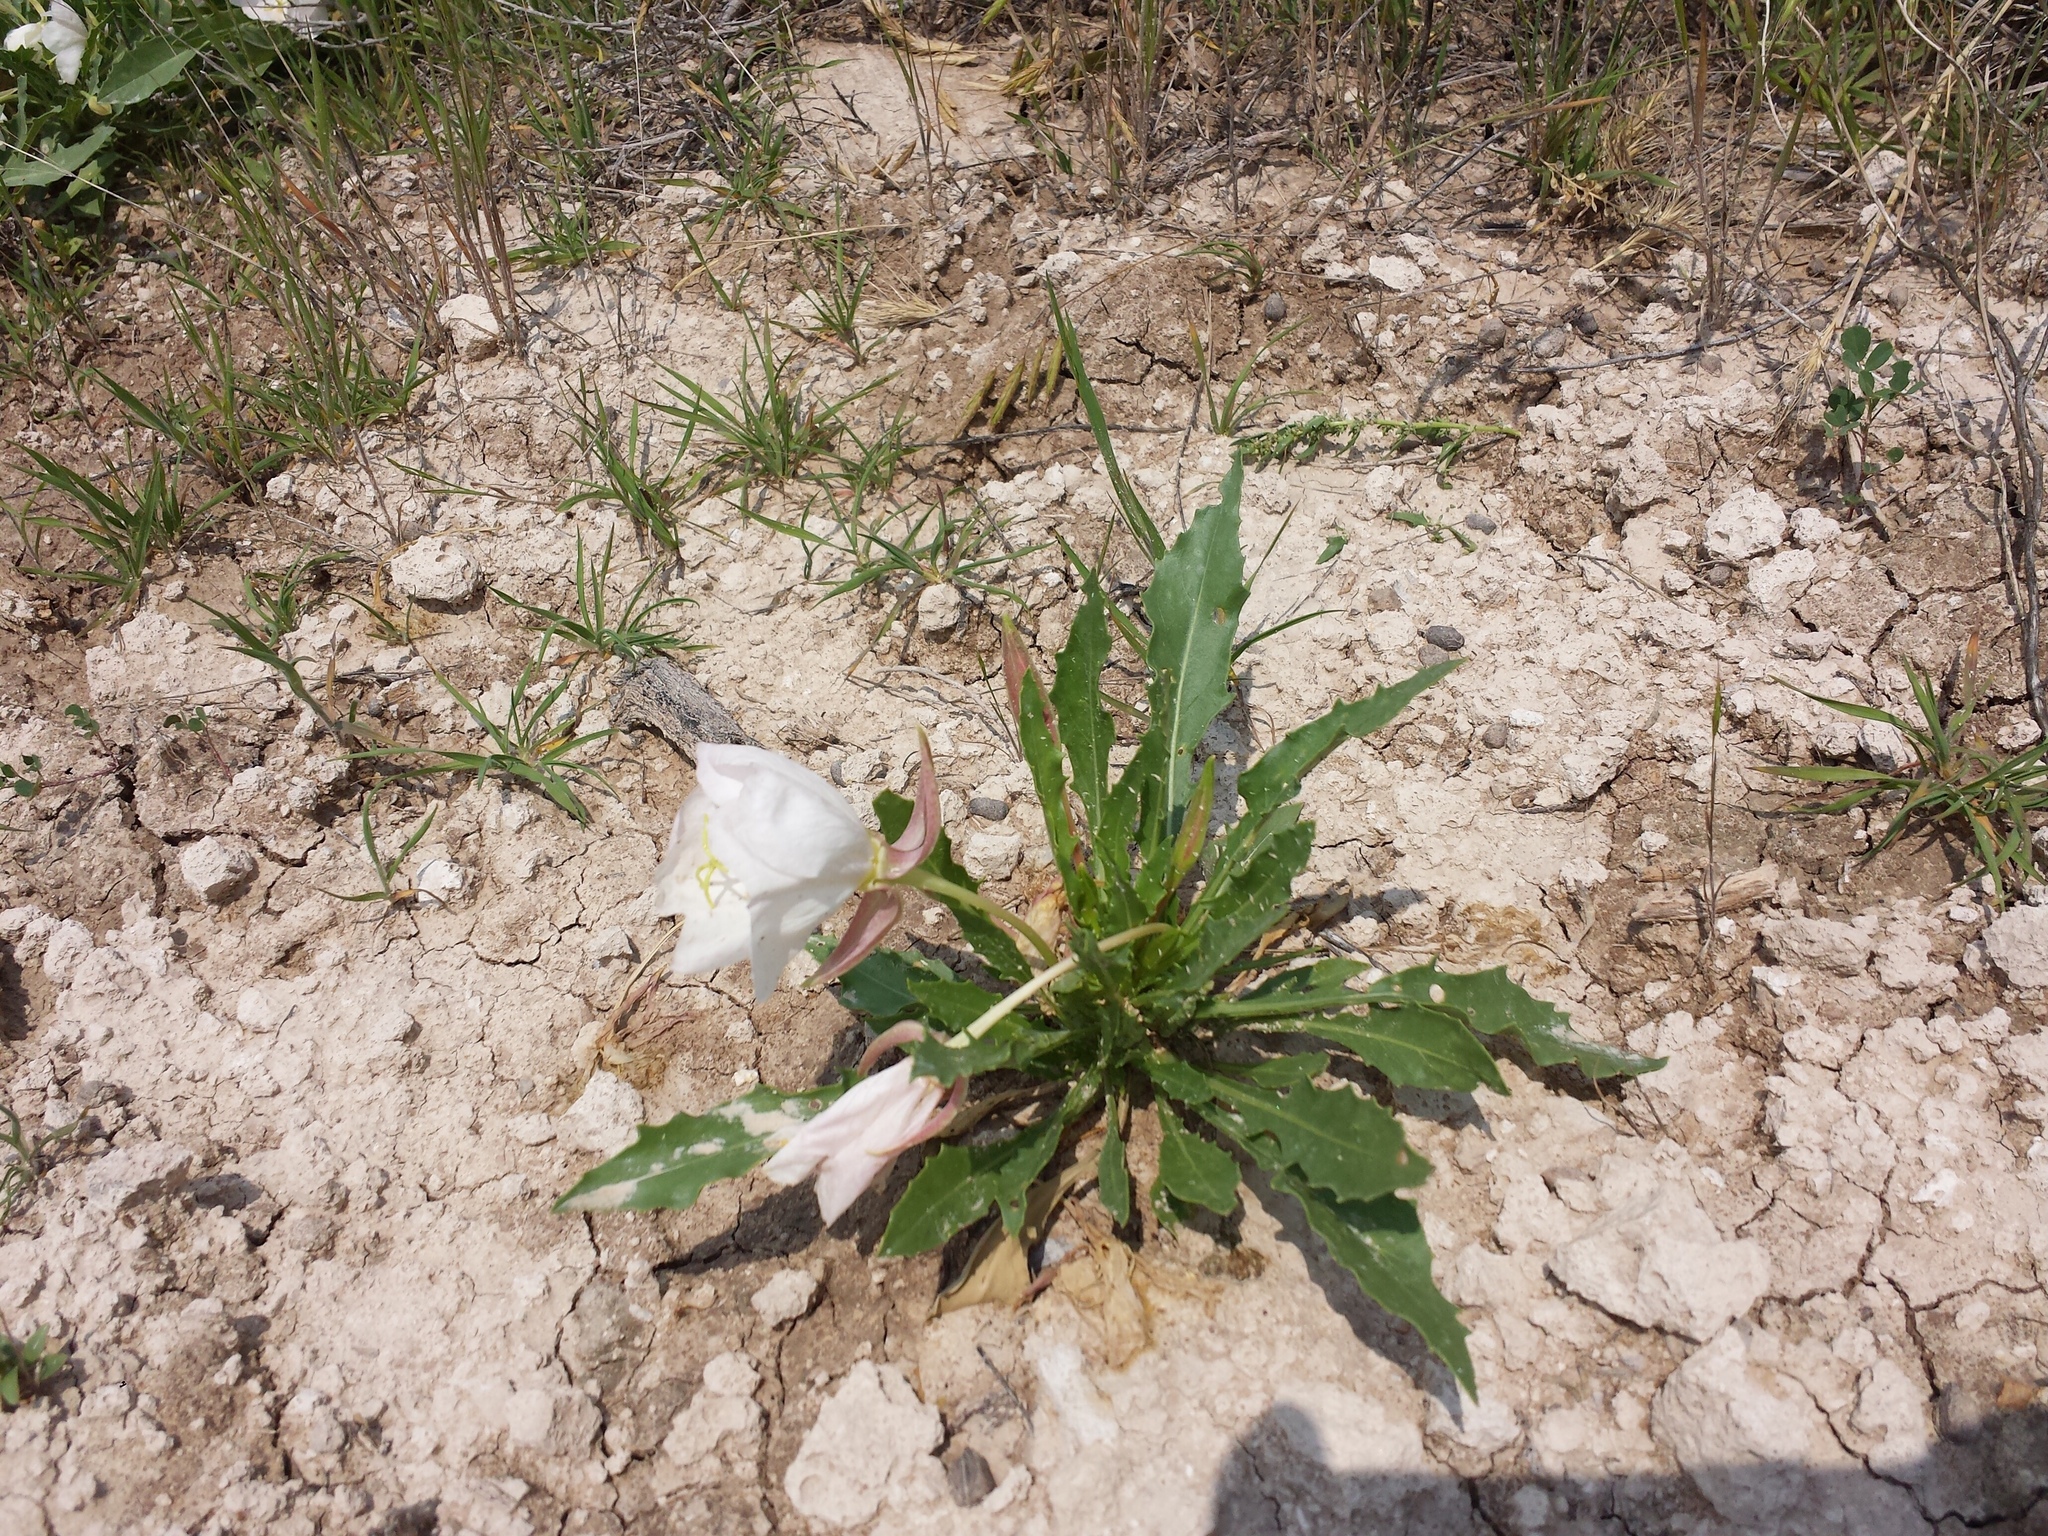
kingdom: Plantae
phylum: Tracheophyta
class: Magnoliopsida
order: Myrtales
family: Onagraceae
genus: Oenothera
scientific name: Oenothera cespitosa
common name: Tufted evening-primrose
